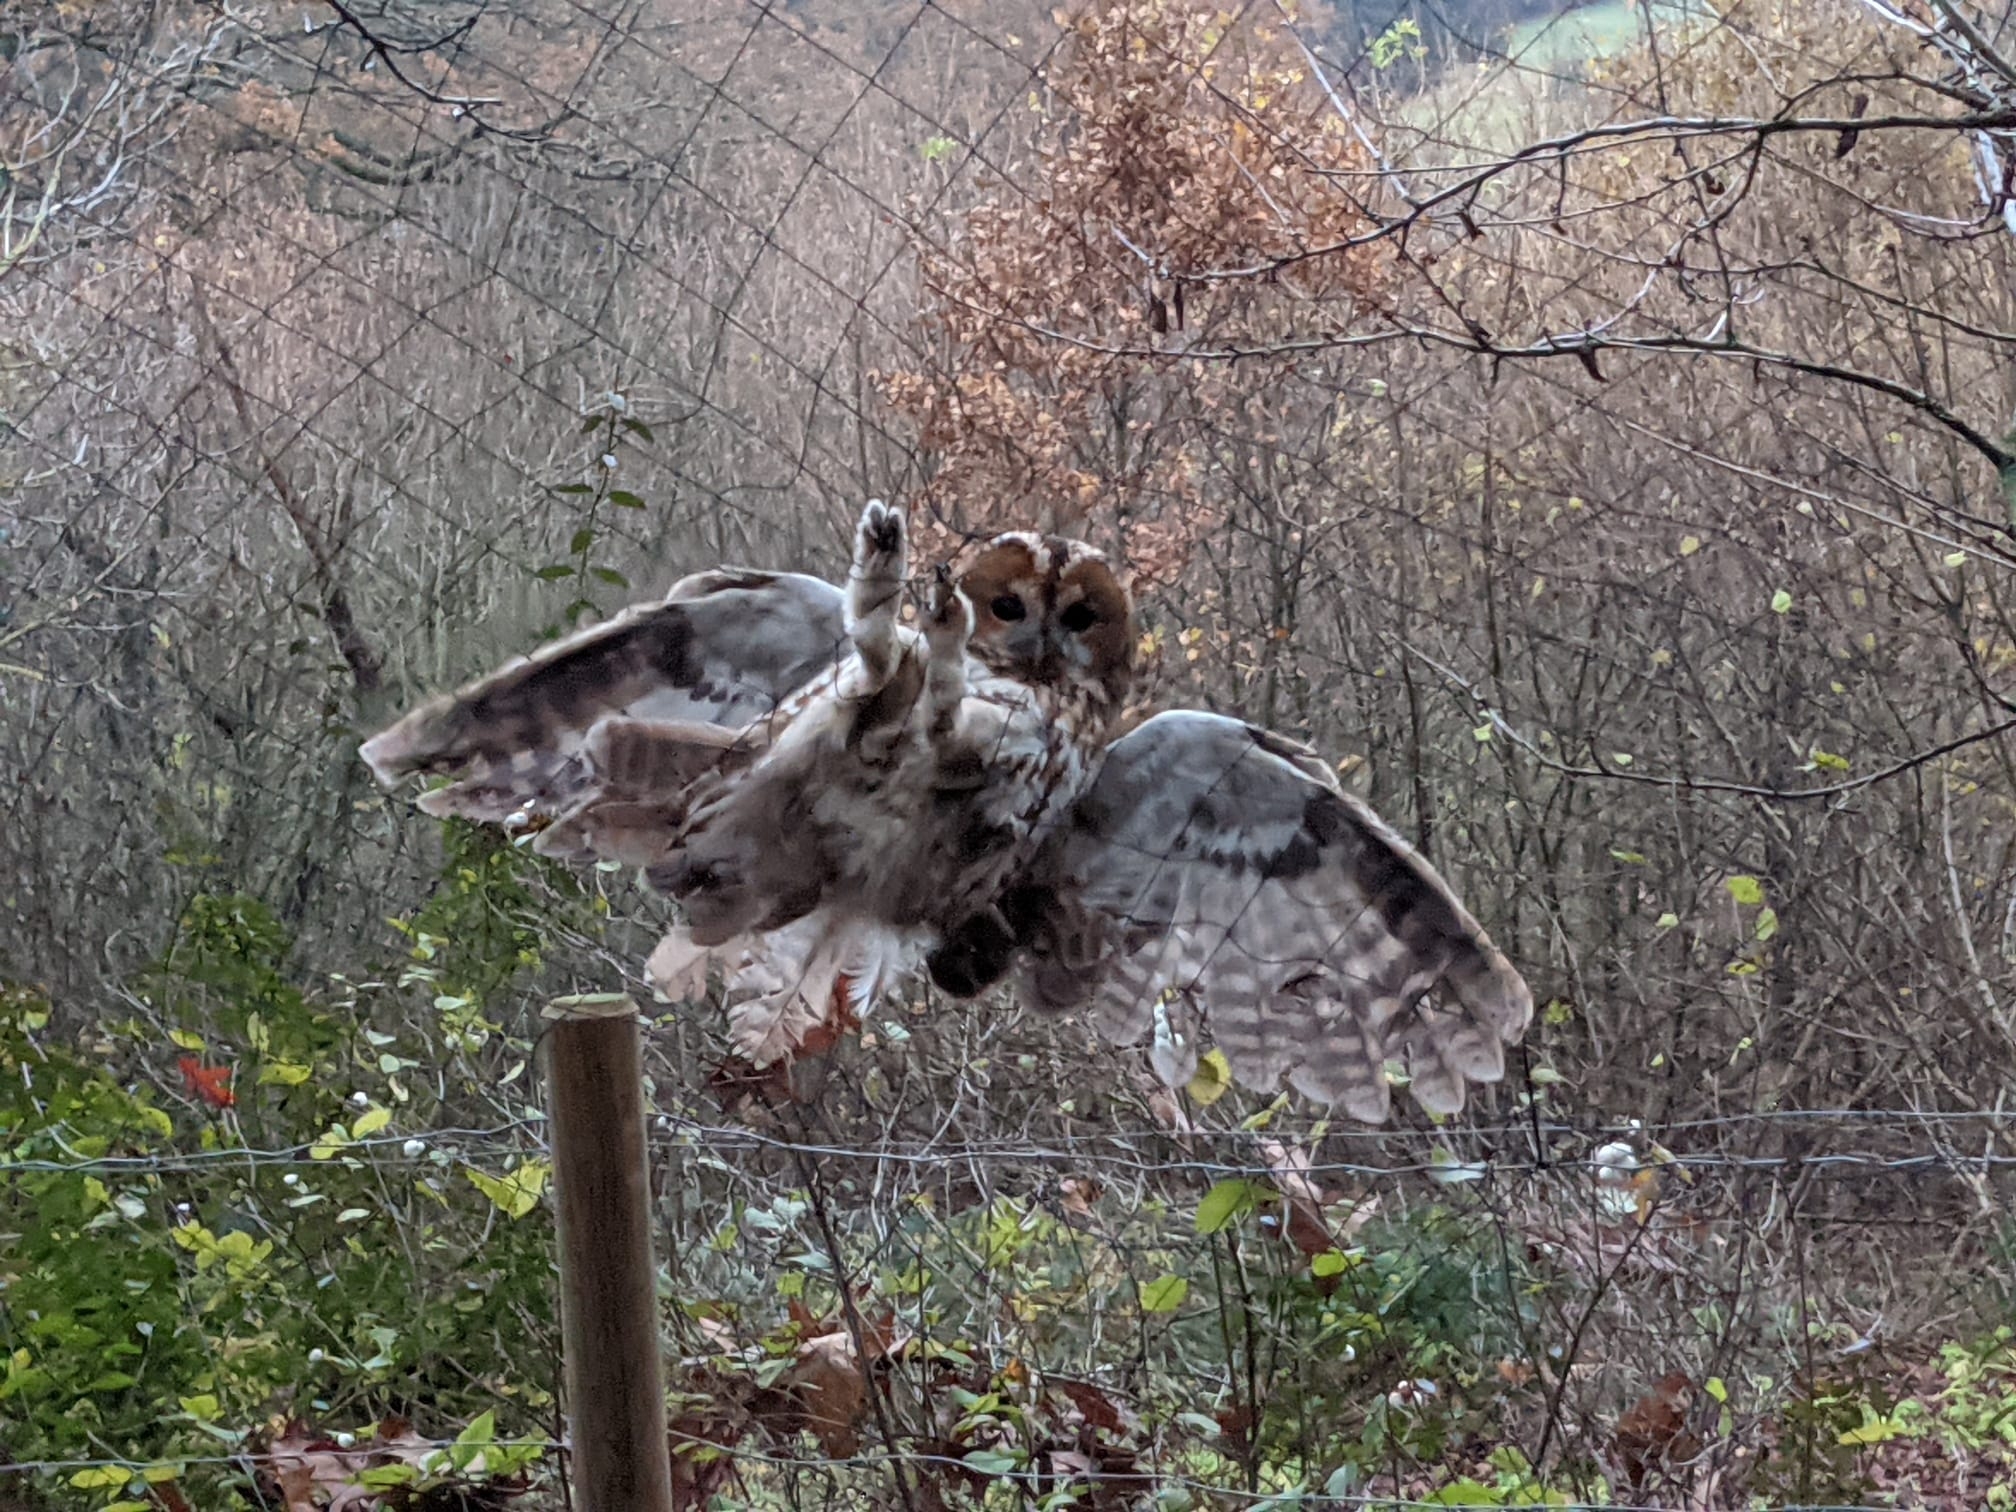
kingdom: Animalia
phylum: Chordata
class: Aves
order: Strigiformes
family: Strigidae
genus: Strix
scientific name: Strix aluco
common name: Tawny owl
